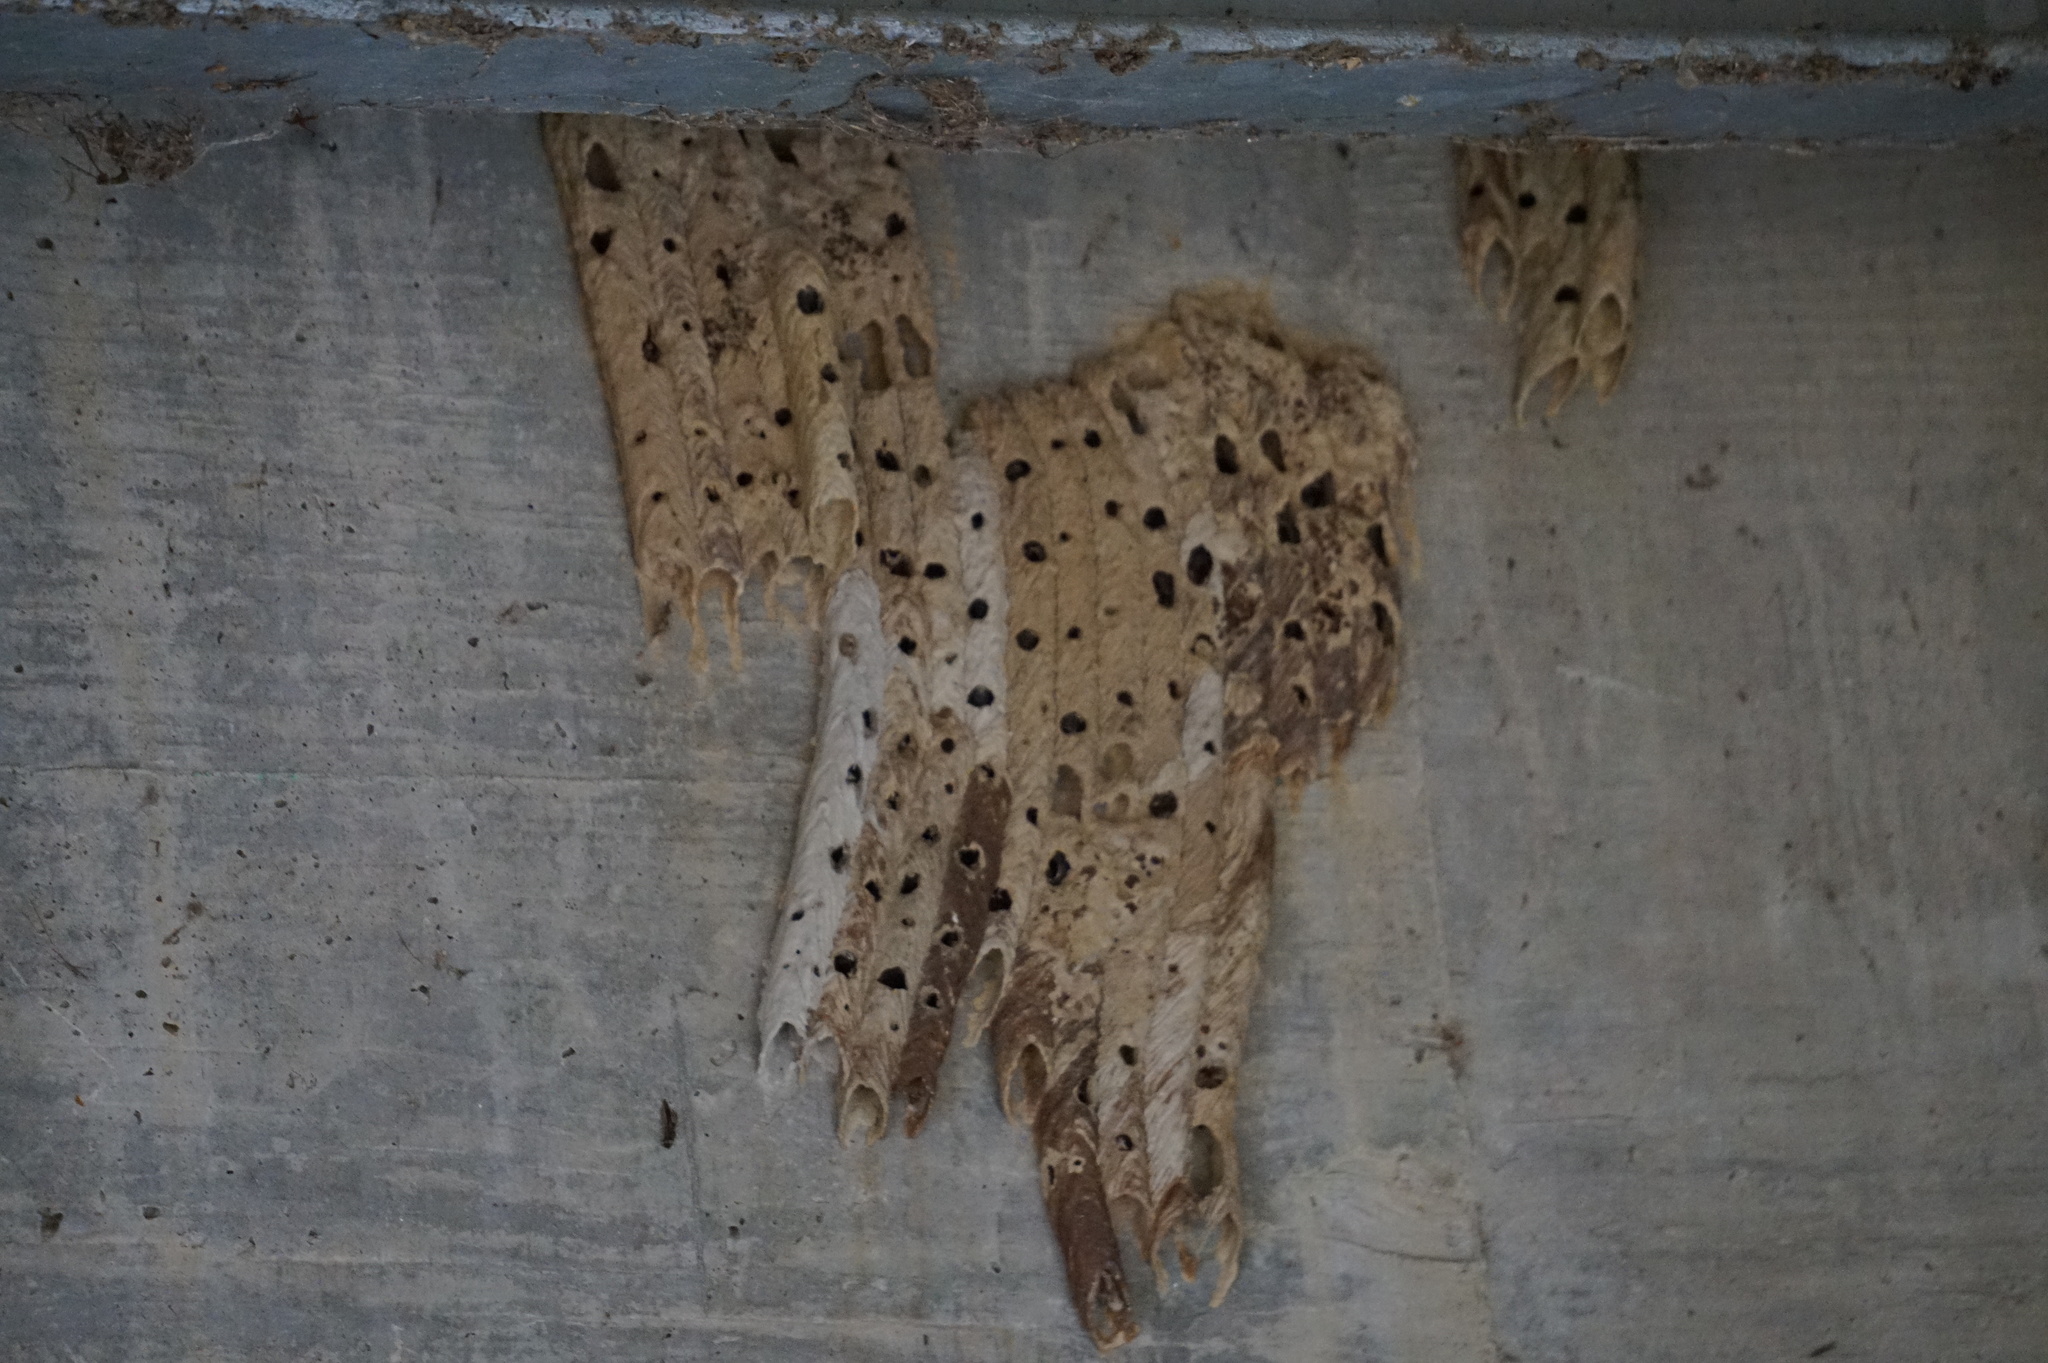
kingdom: Animalia
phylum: Arthropoda
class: Insecta
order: Hymenoptera
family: Crabronidae
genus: Trypoxylon
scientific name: Trypoxylon politum
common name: Organ-pipe mud-dauber wasp
